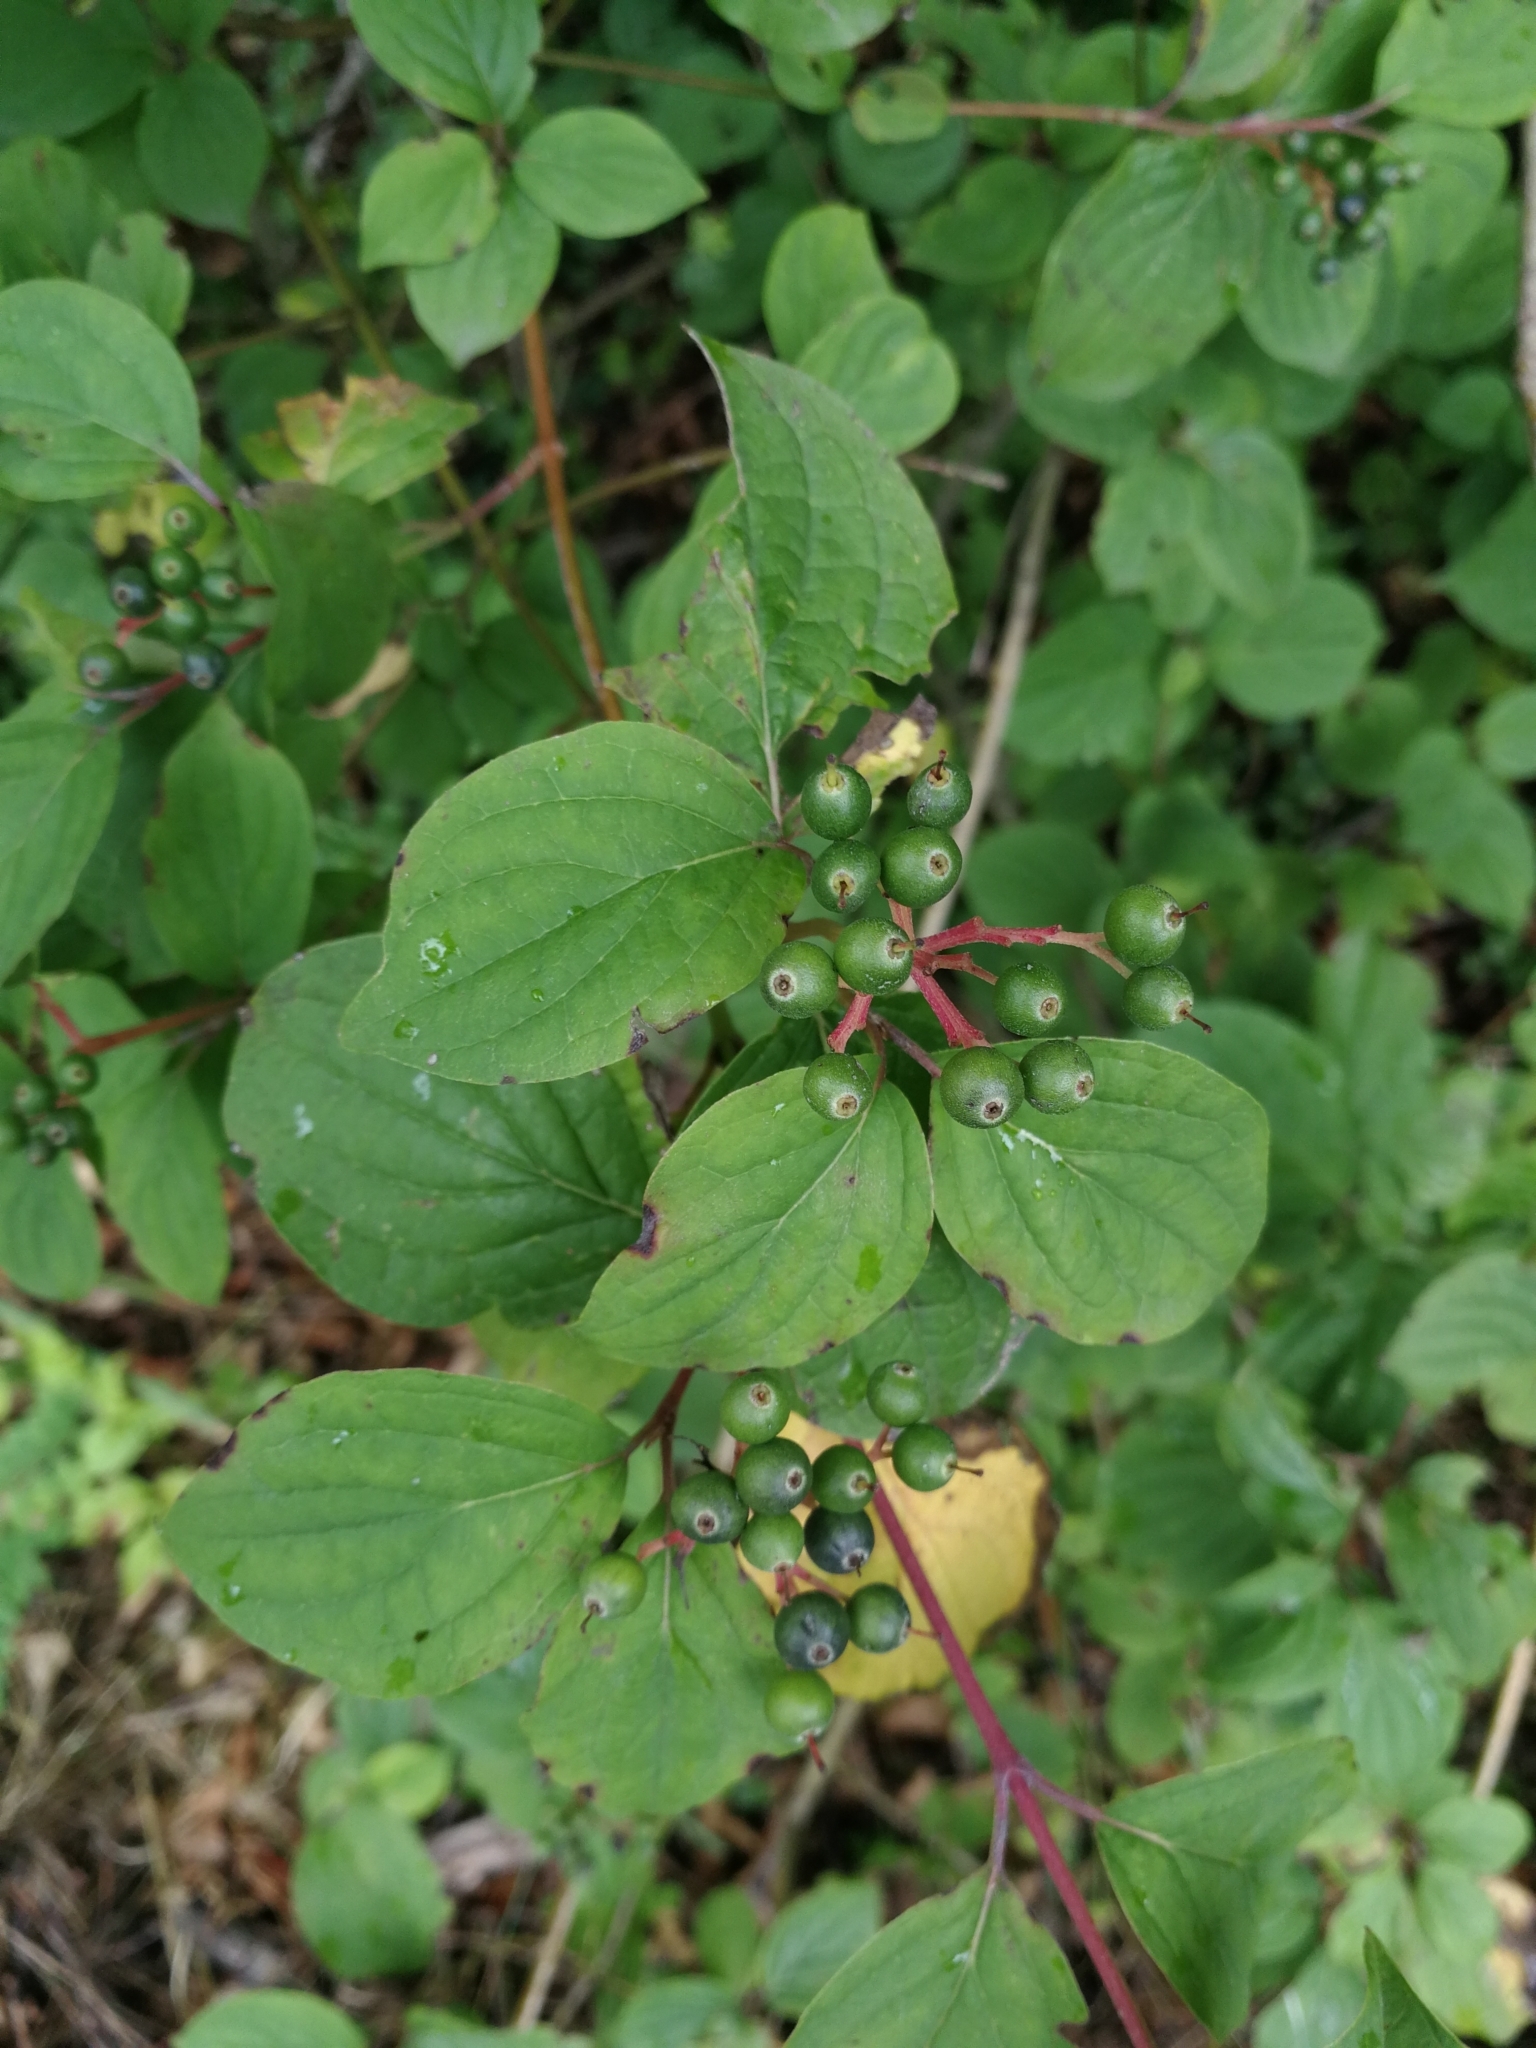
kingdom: Plantae
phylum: Tracheophyta
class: Magnoliopsida
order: Cornales
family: Cornaceae
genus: Cornus
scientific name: Cornus sanguinea
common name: Dogwood
